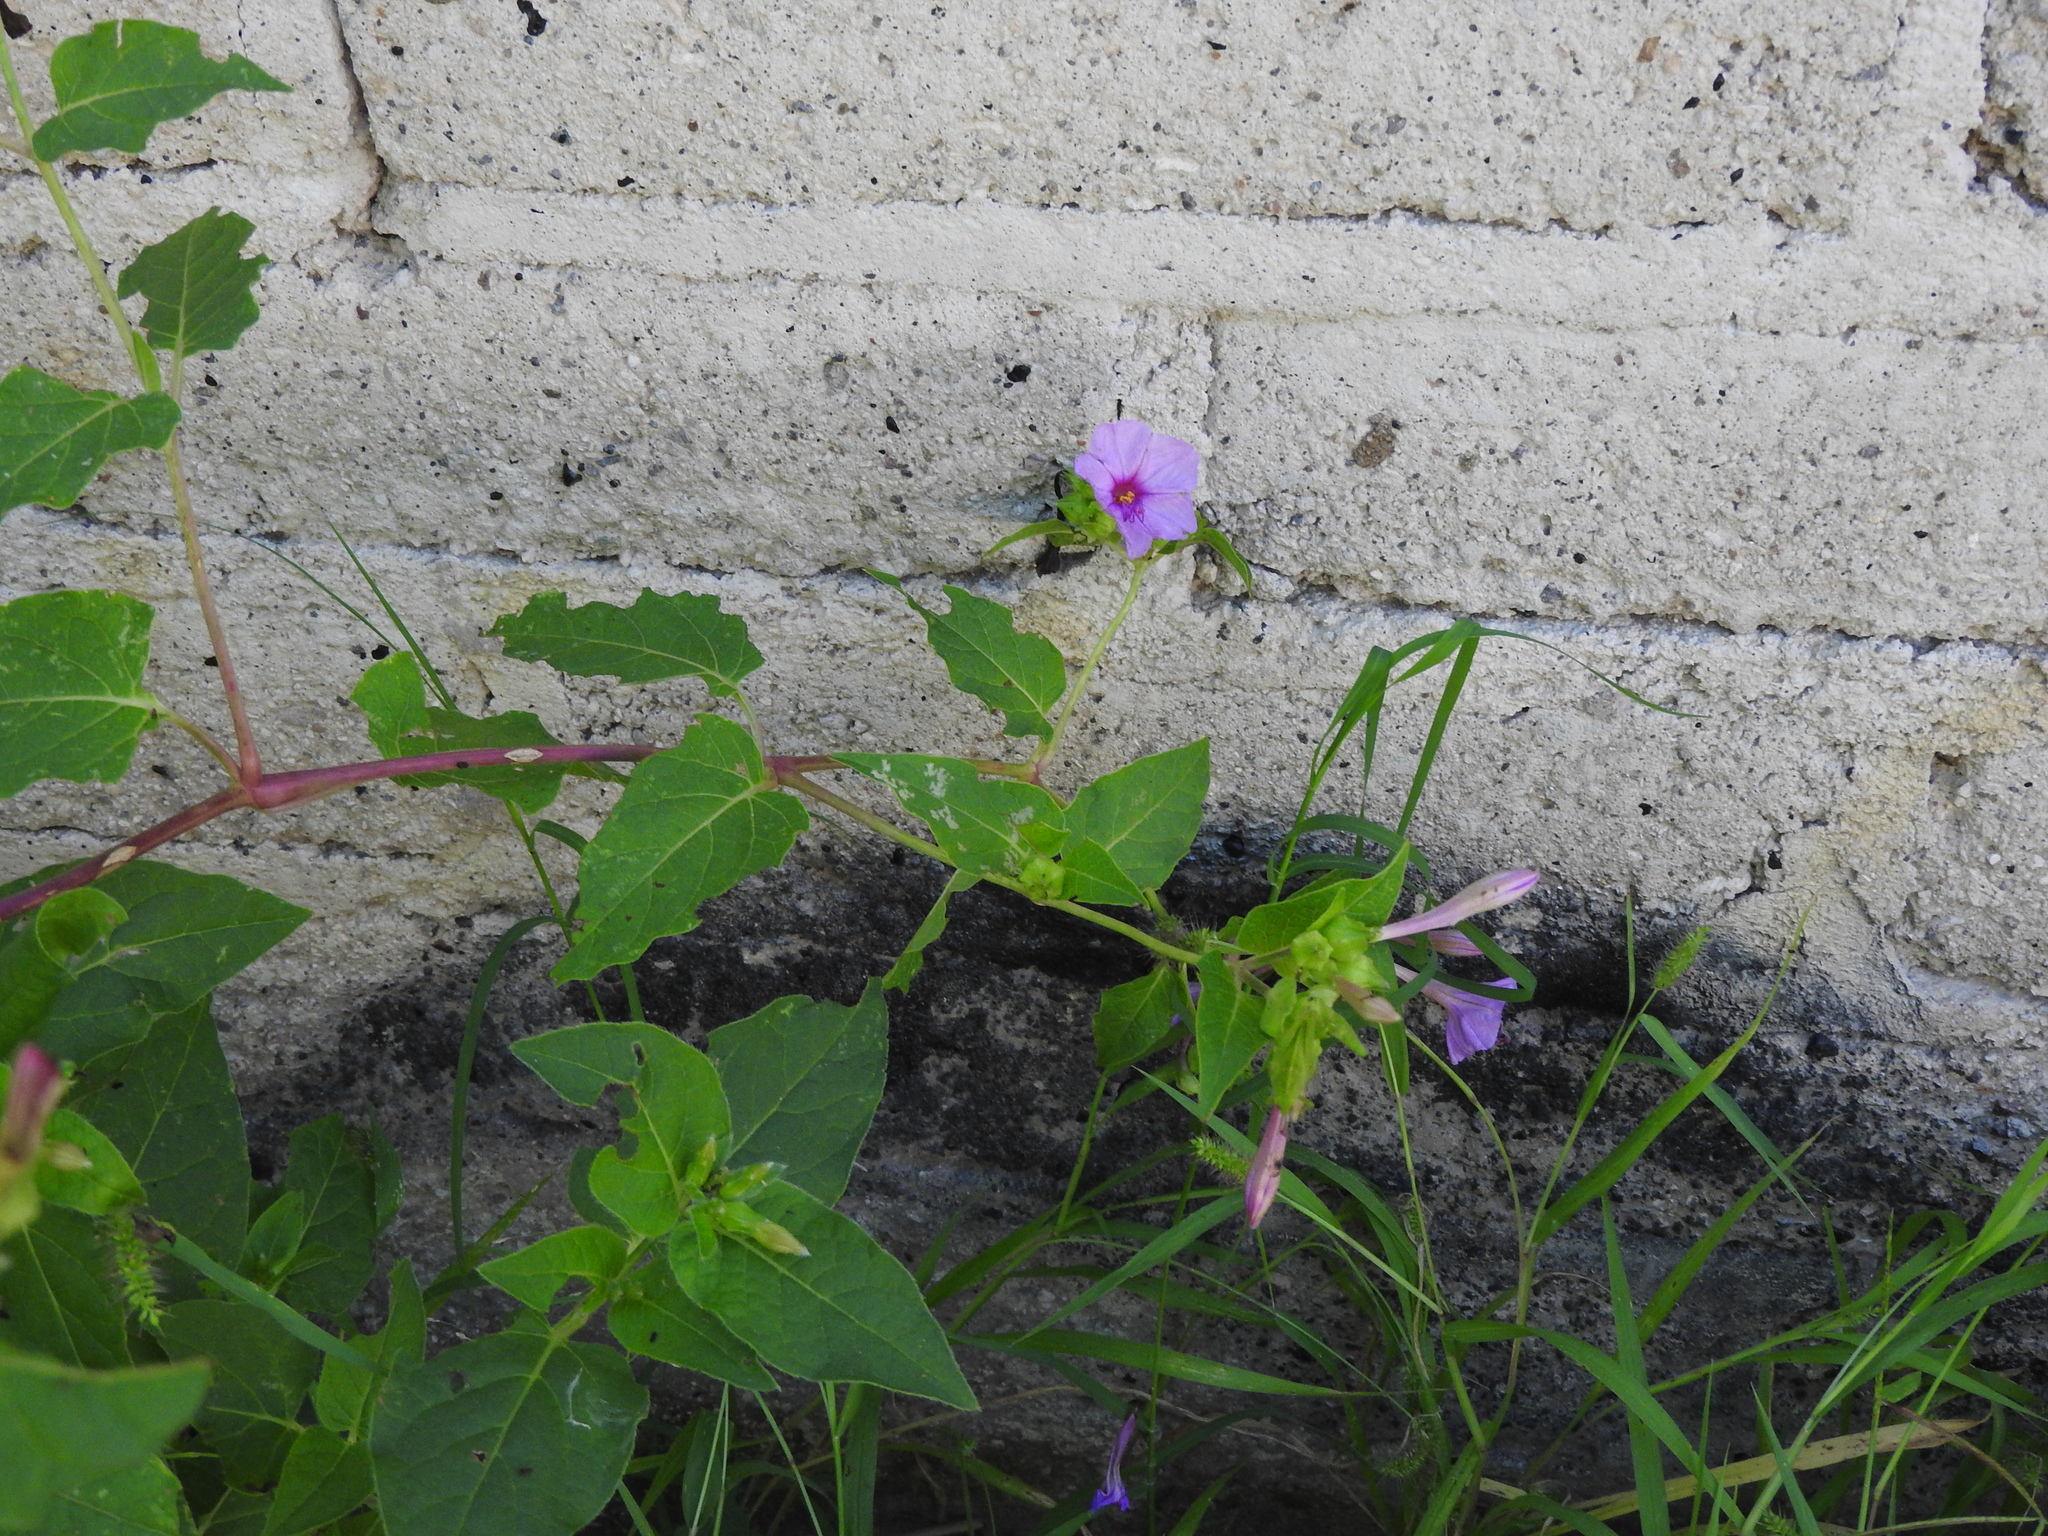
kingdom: Plantae
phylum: Tracheophyta
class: Magnoliopsida
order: Caryophyllales
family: Nyctaginaceae
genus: Mirabilis
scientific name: Mirabilis jalapa
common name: Marvel-of-peru
